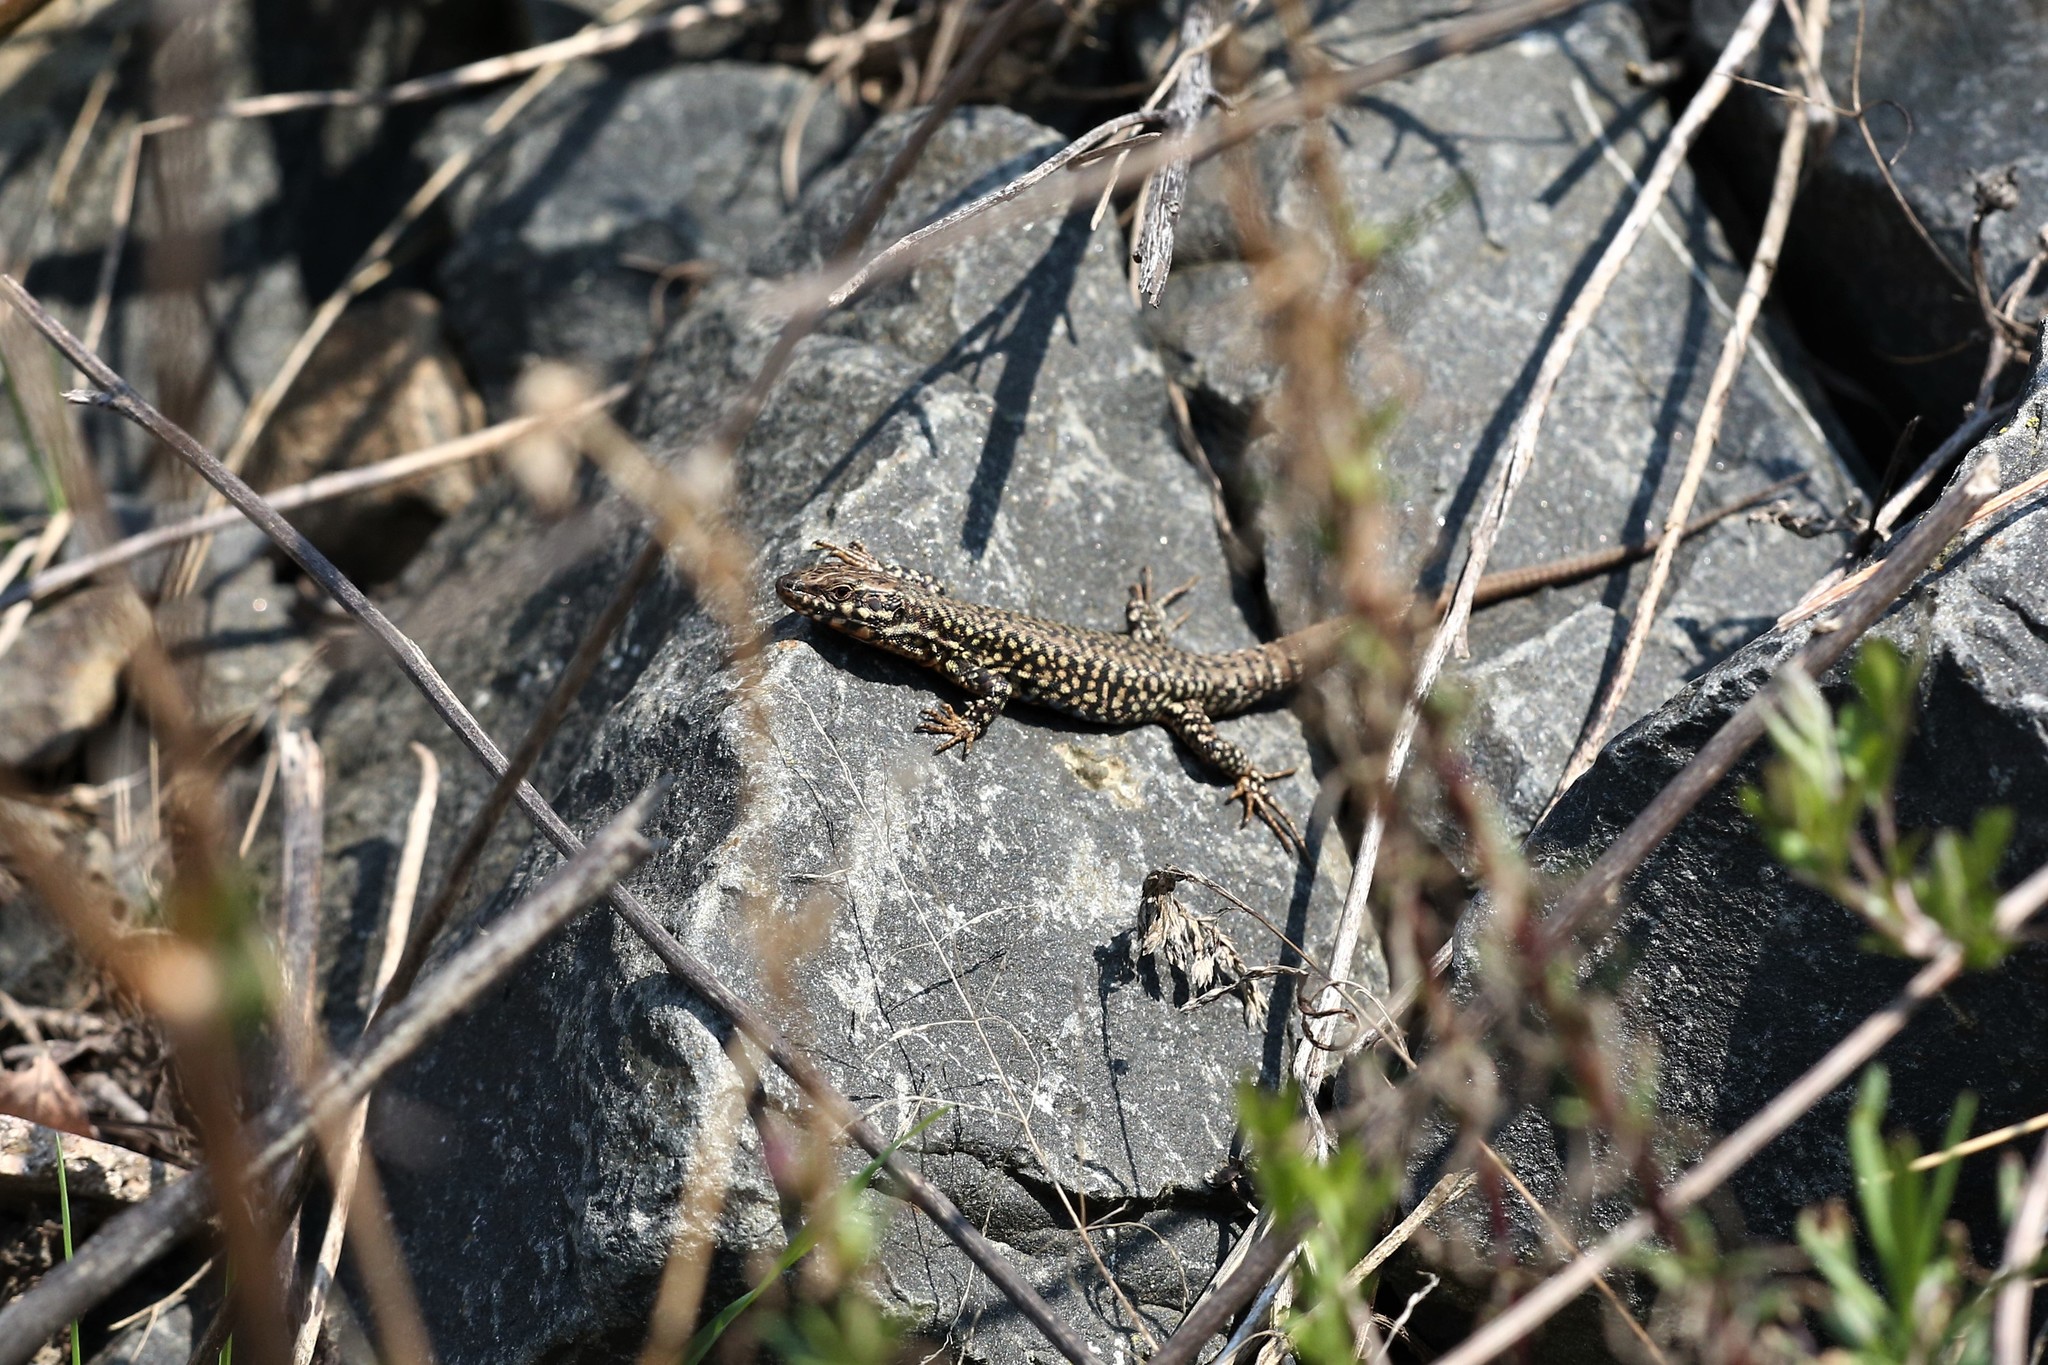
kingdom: Animalia
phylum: Chordata
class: Squamata
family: Lacertidae
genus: Podarcis
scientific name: Podarcis muralis
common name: Common wall lizard
